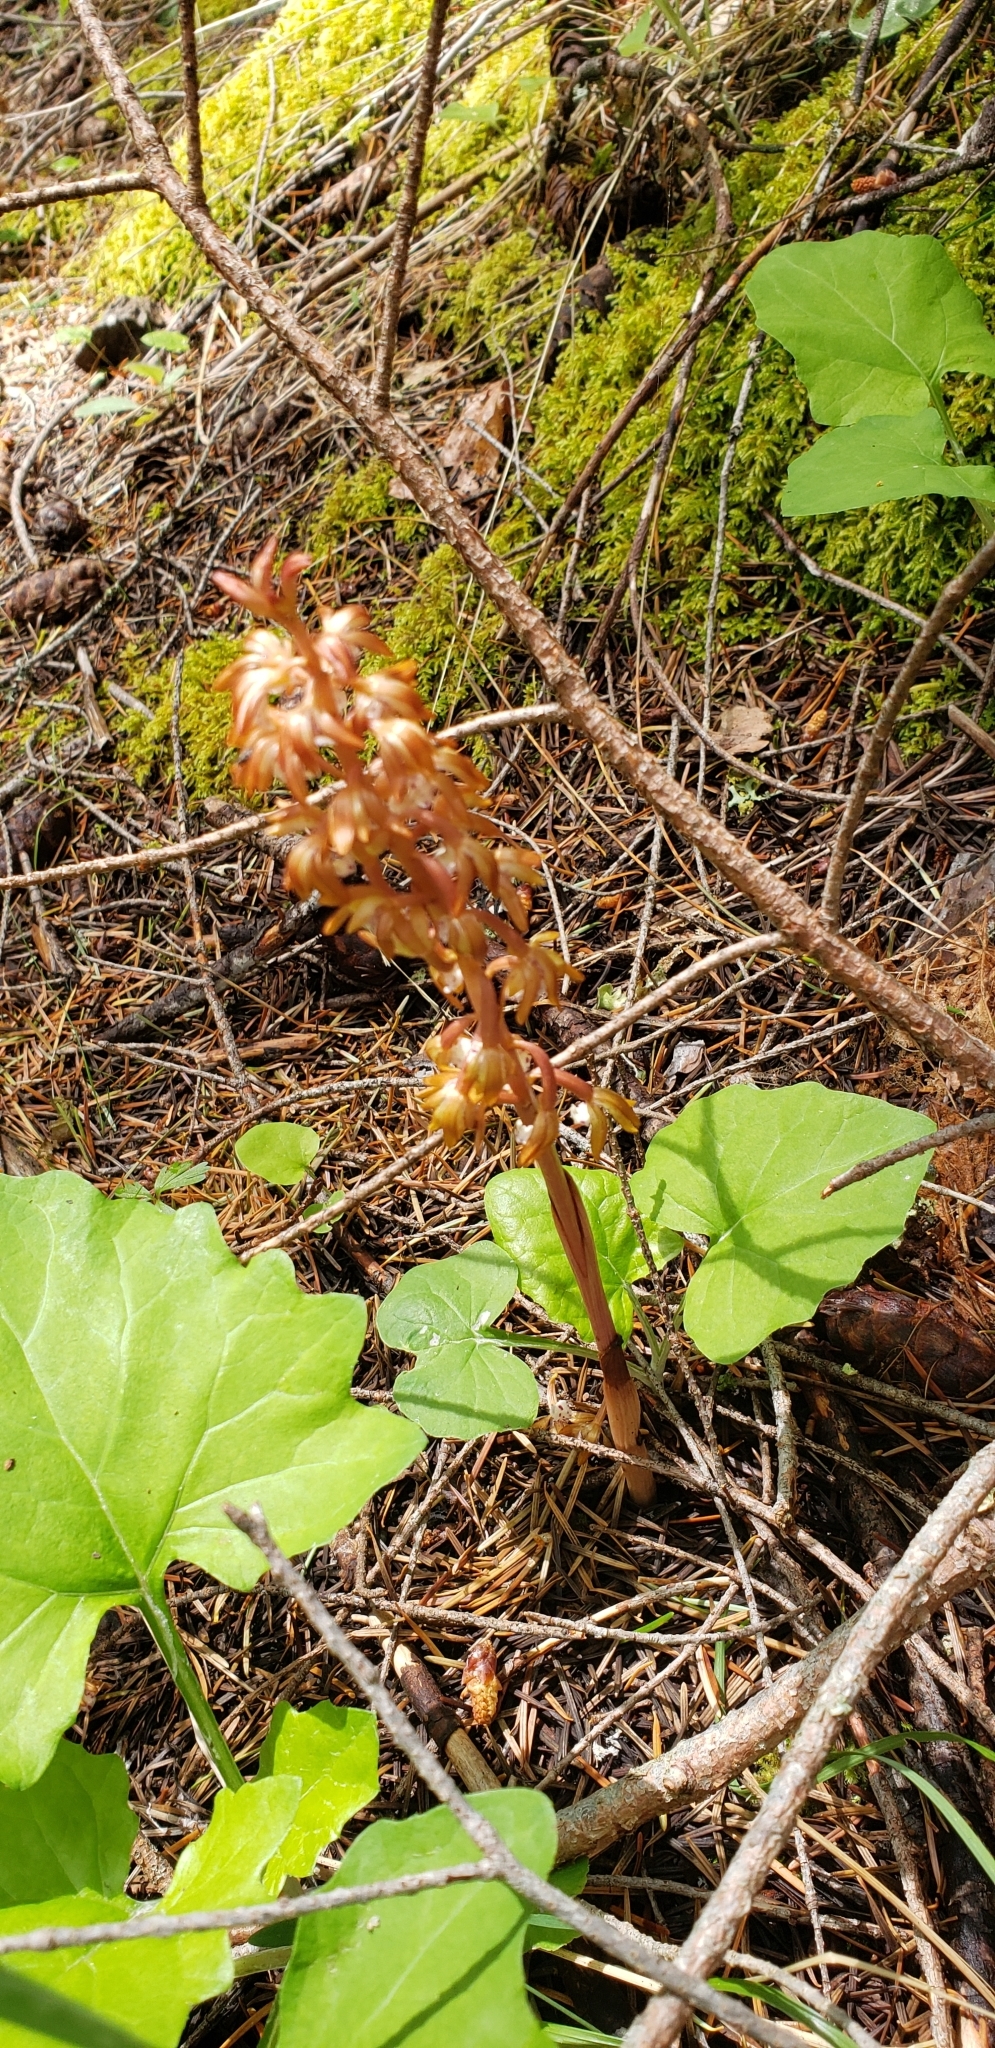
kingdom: Plantae
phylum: Tracheophyta
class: Liliopsida
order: Asparagales
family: Orchidaceae
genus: Corallorhiza
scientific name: Corallorhiza maculata
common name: Spotted coralroot
